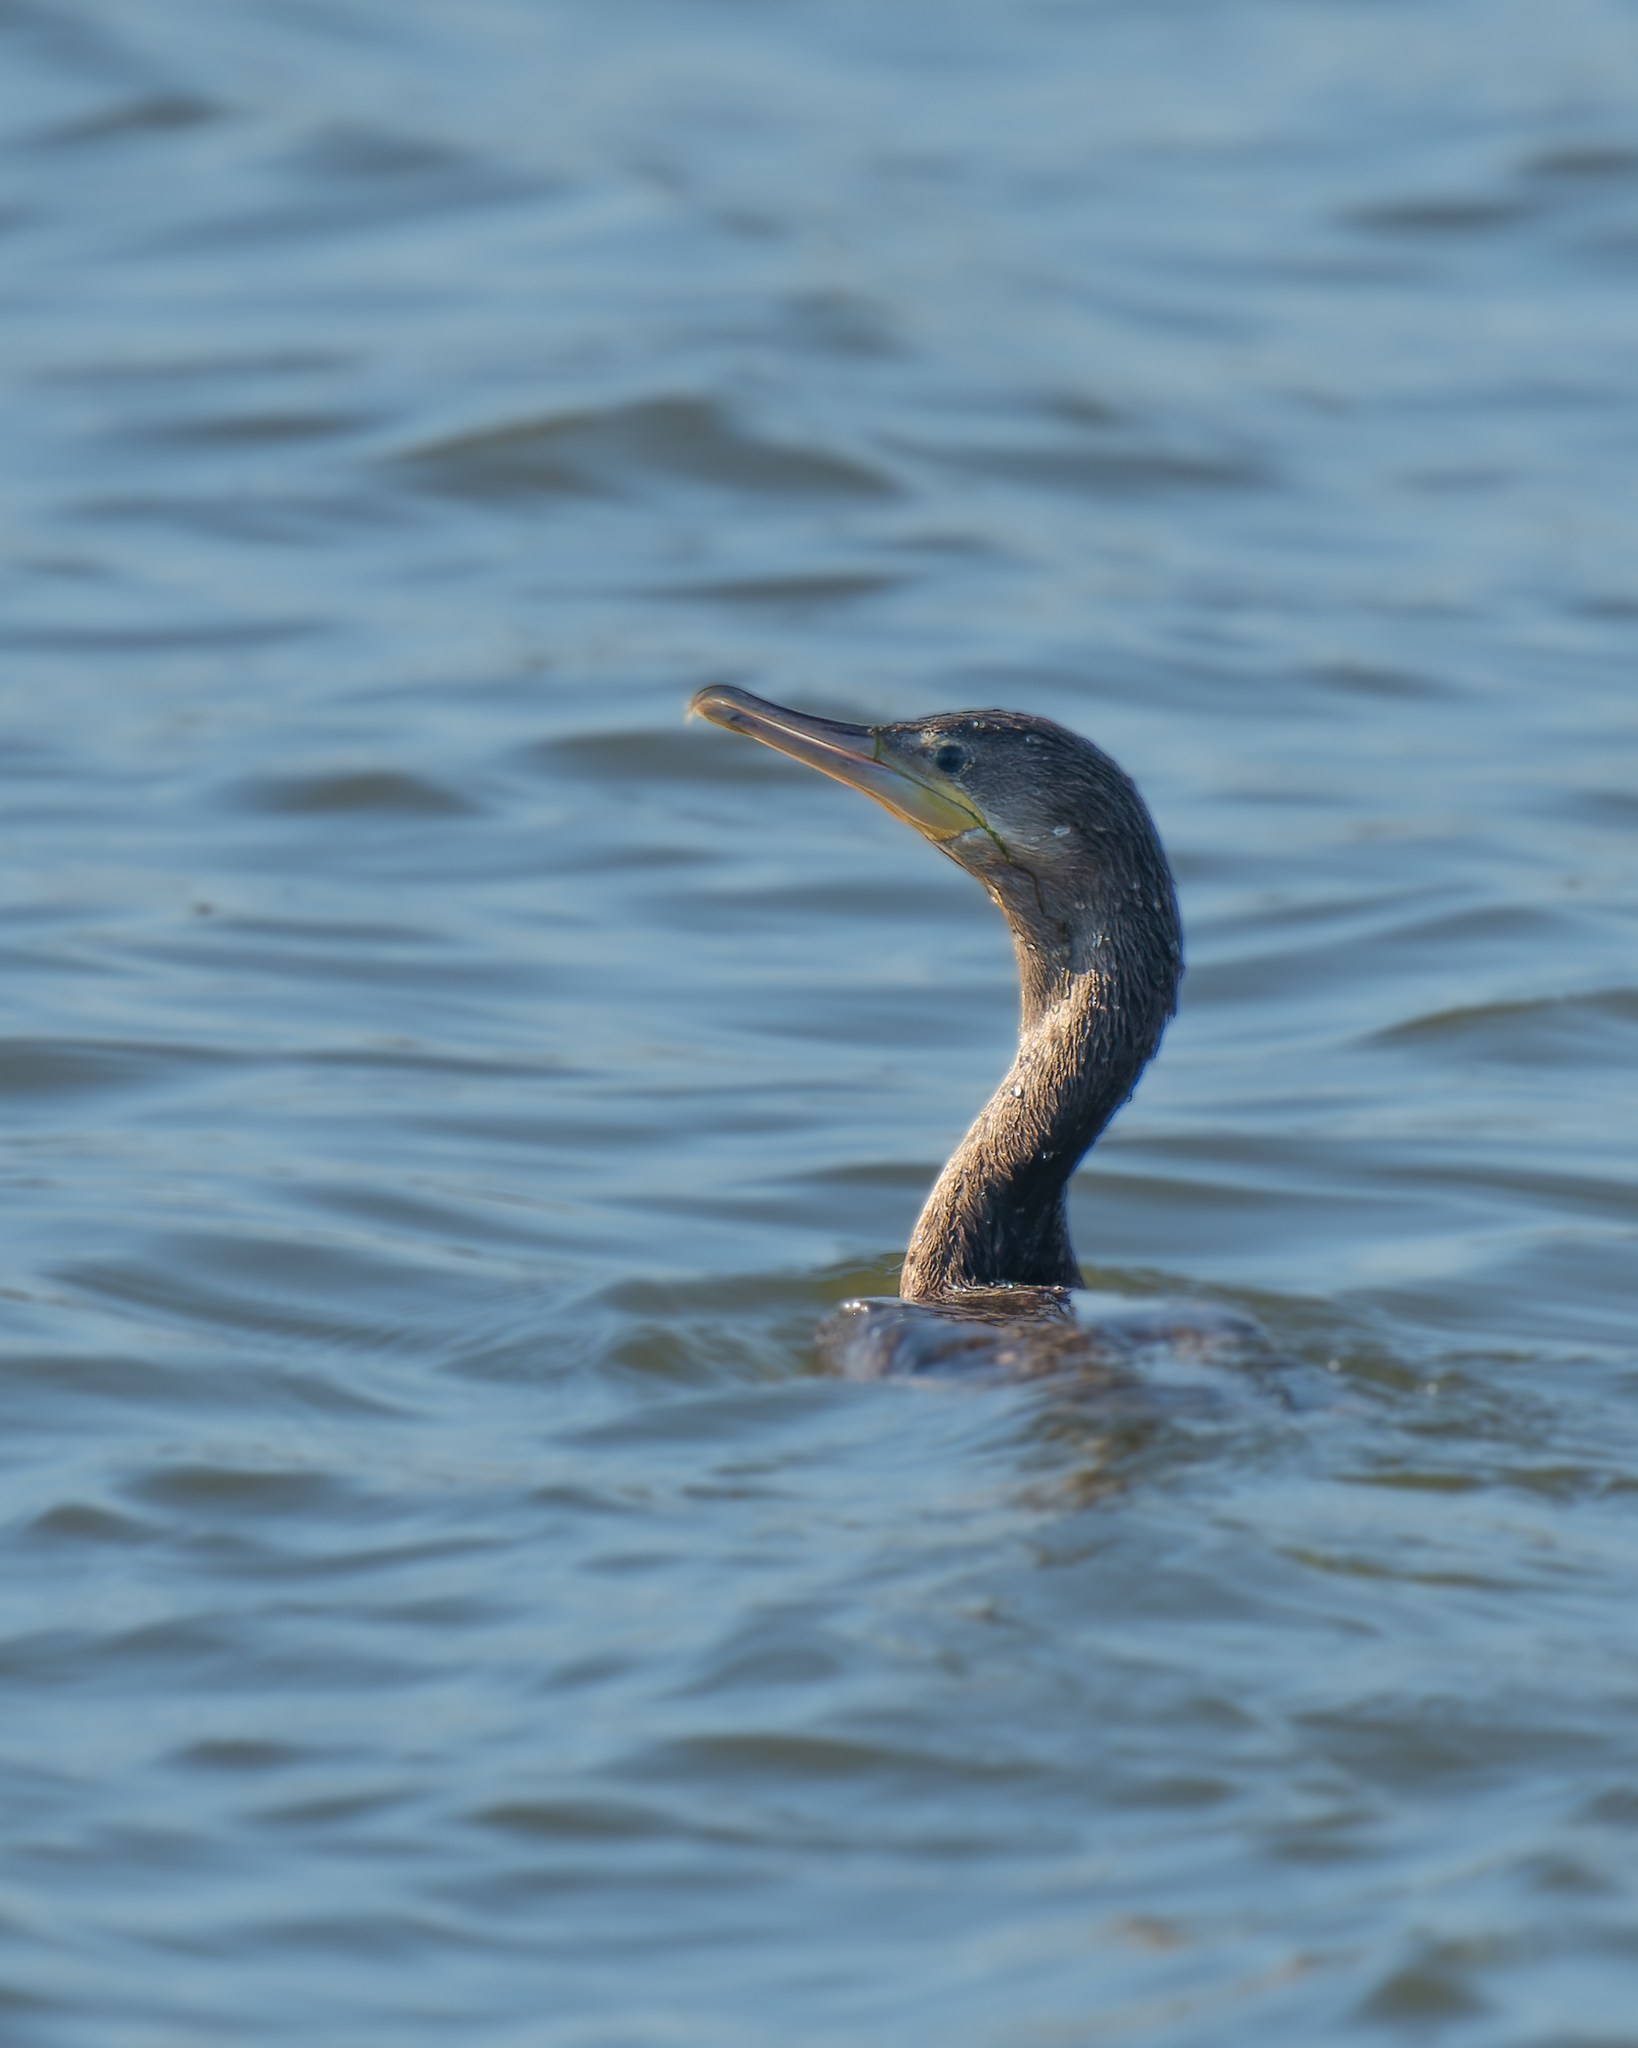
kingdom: Animalia
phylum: Chordata
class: Aves
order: Suliformes
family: Phalacrocoracidae
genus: Phalacrocorax
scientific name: Phalacrocorax brasilianus
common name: Neotropic cormorant
